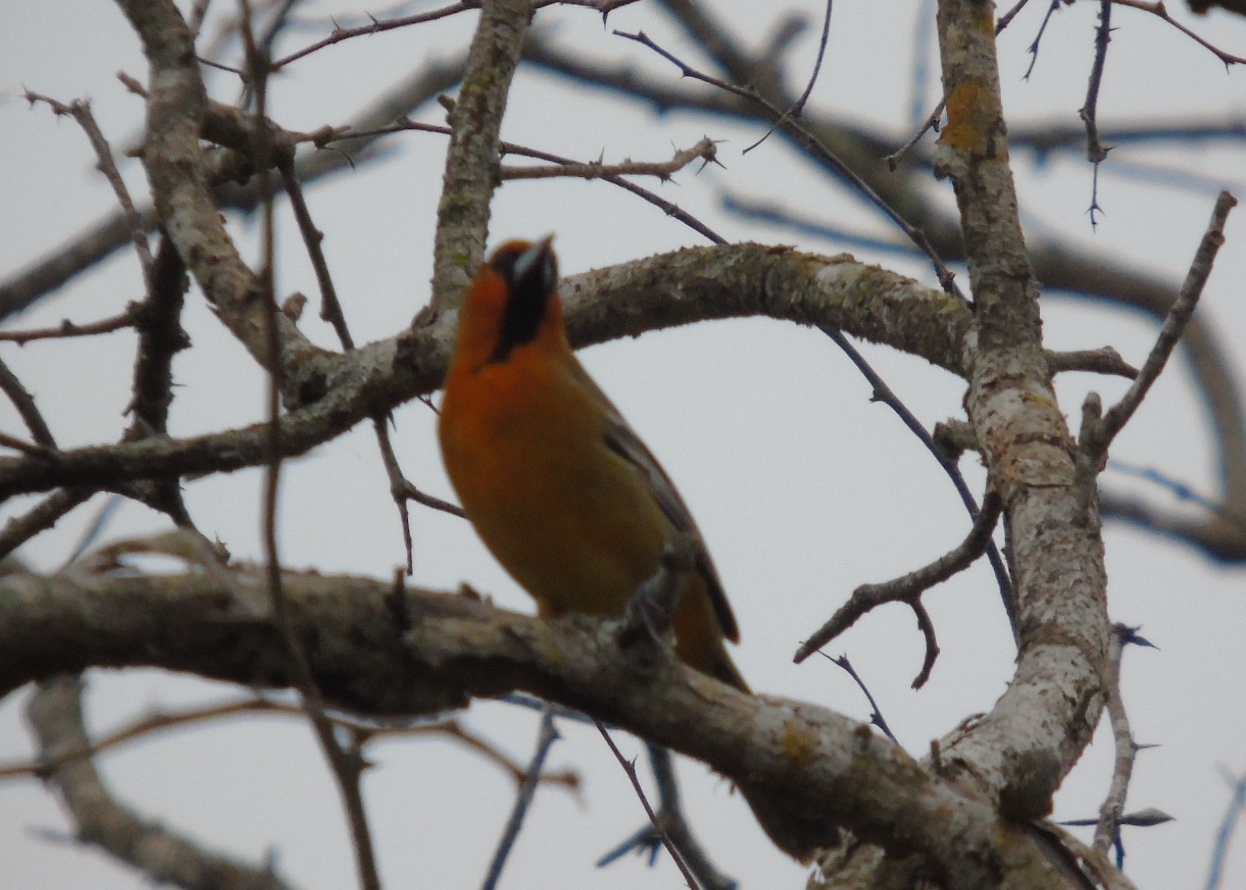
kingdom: Animalia
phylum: Chordata
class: Aves
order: Passeriformes
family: Icteridae
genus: Icterus
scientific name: Icterus pustulatus
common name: Streak-backed oriole
